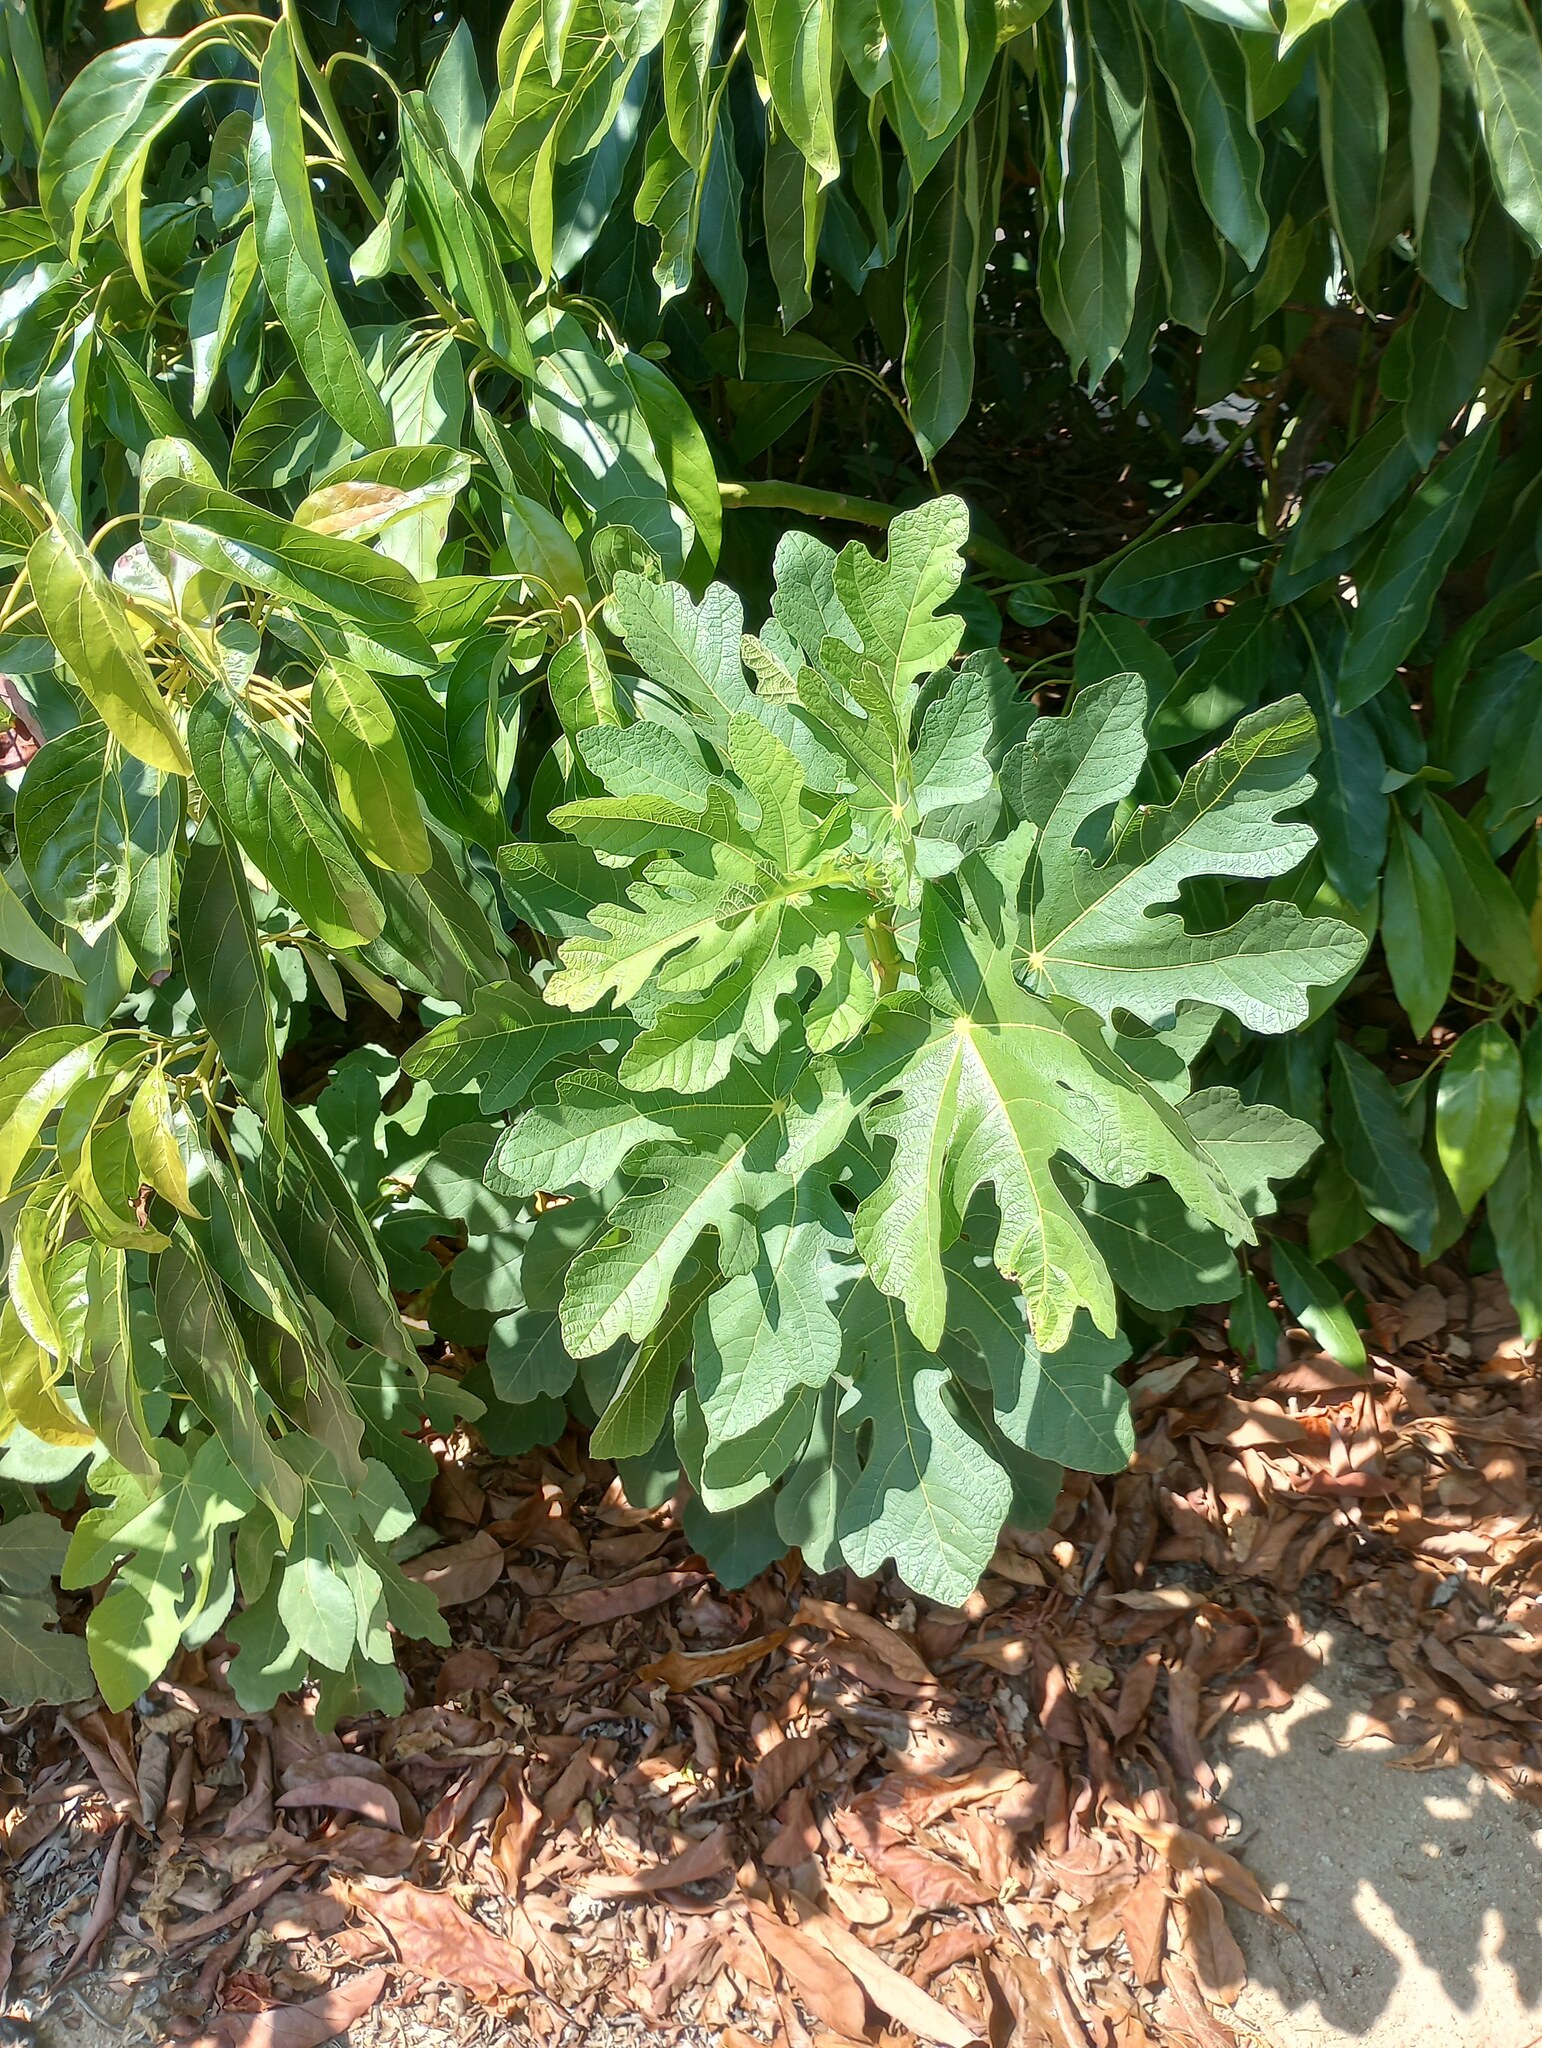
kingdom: Plantae
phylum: Tracheophyta
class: Magnoliopsida
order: Rosales
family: Moraceae
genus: Ficus
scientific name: Ficus carica
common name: Fig
